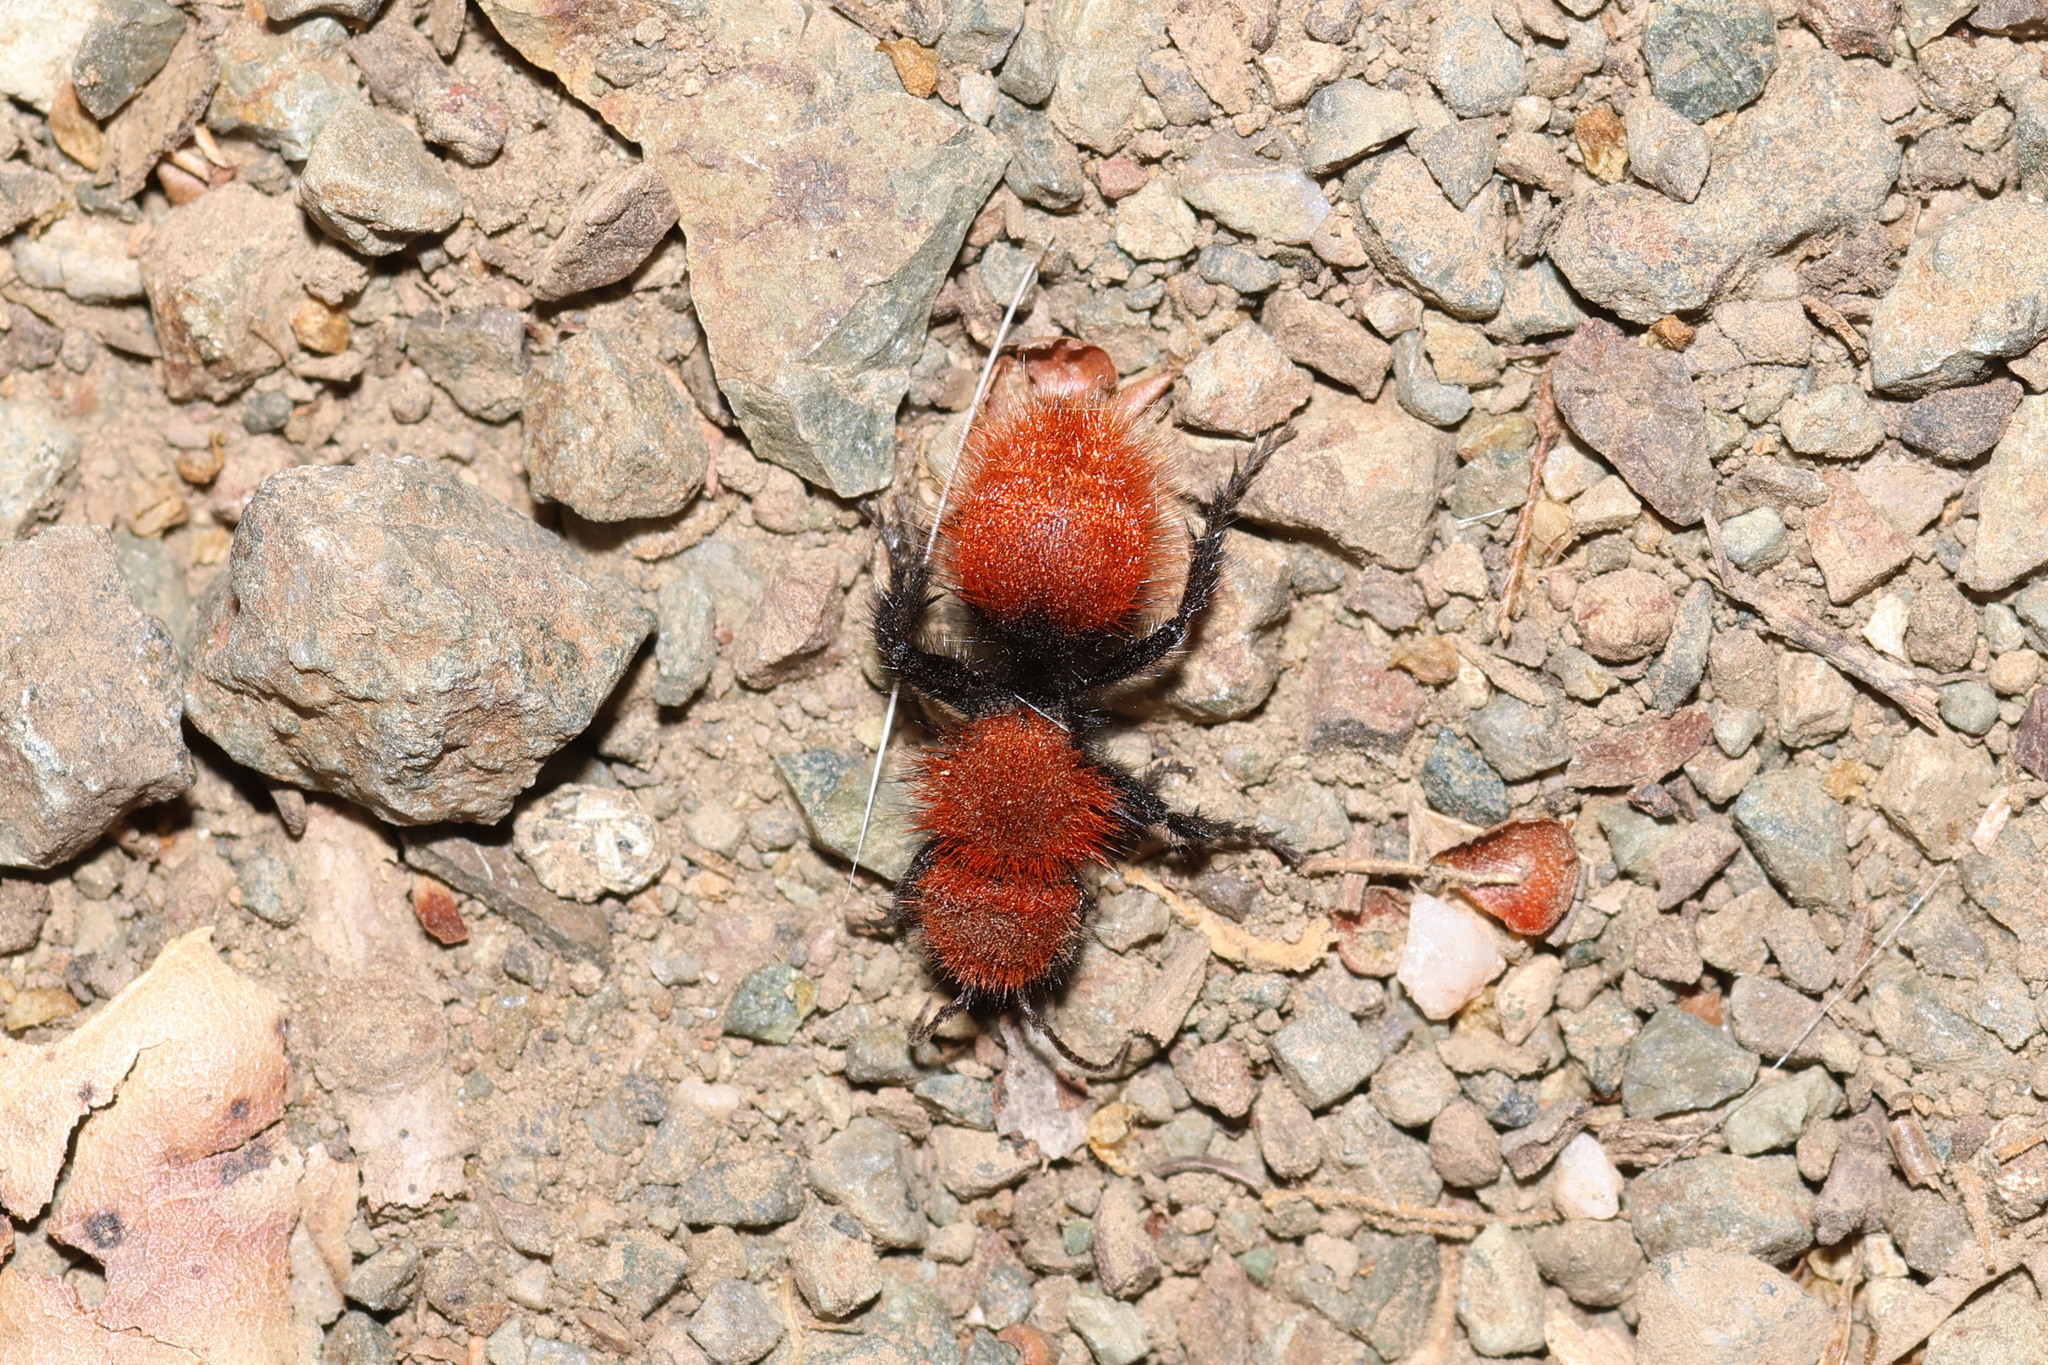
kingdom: Animalia
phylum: Arthropoda
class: Insecta
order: Hymenoptera
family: Mutillidae
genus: Dasymutilla
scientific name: Dasymutilla
